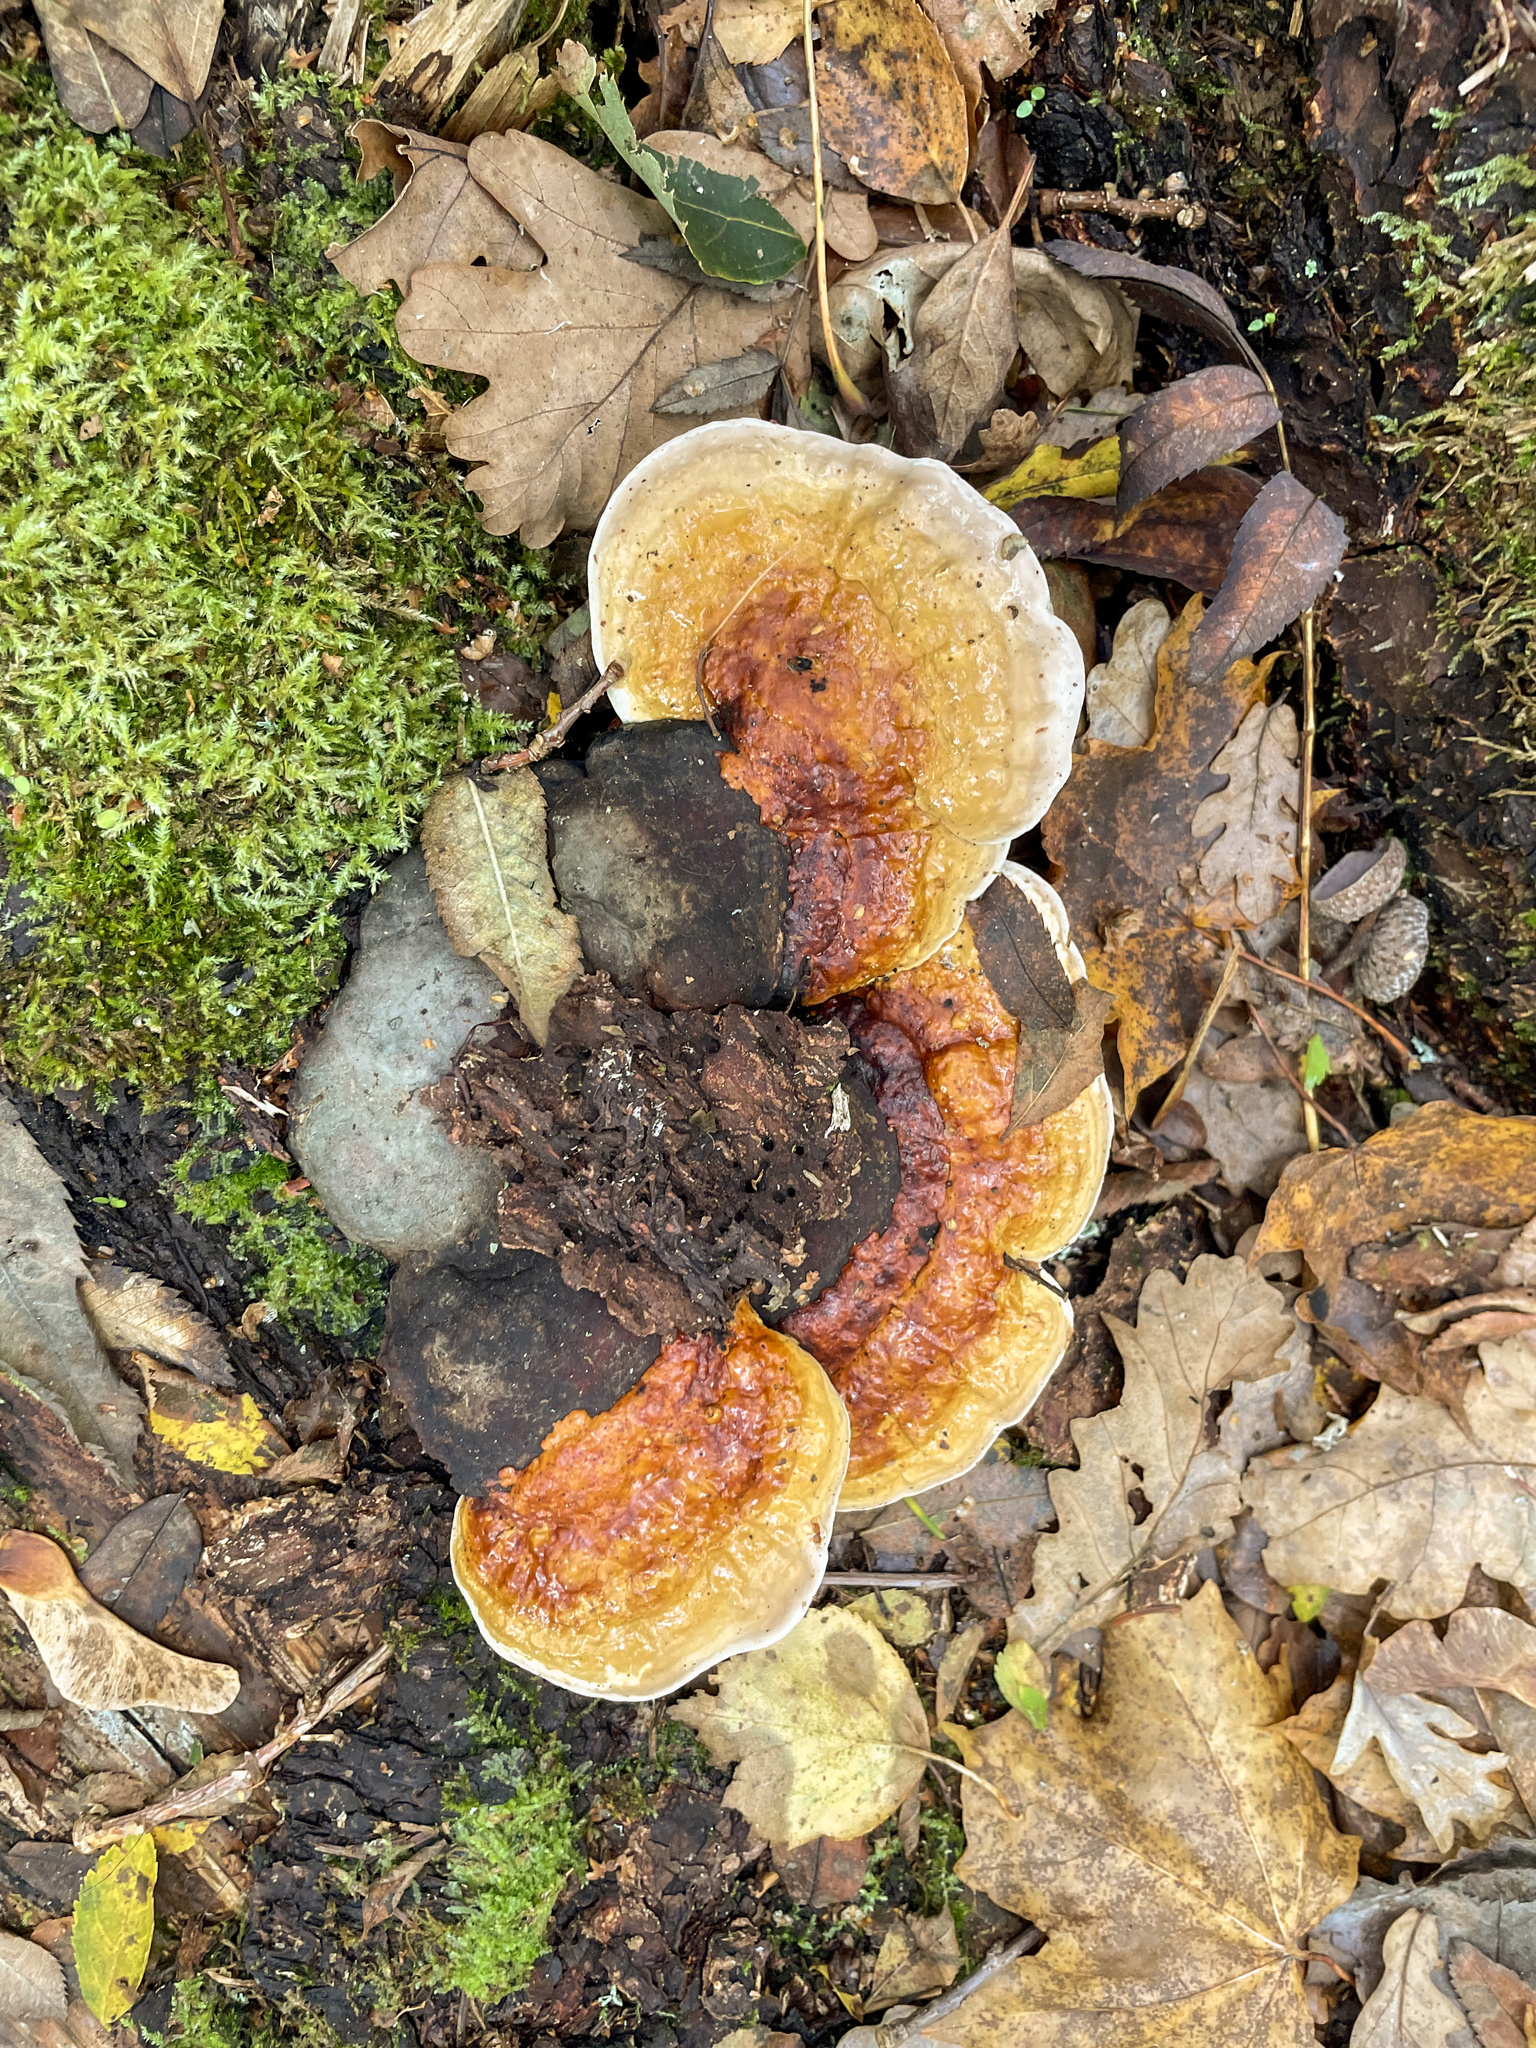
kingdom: Fungi
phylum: Basidiomycota
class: Agaricomycetes
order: Polyporales
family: Fomitopsidaceae
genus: Fomitopsis
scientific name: Fomitopsis pinicola
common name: Red-belted bracket
